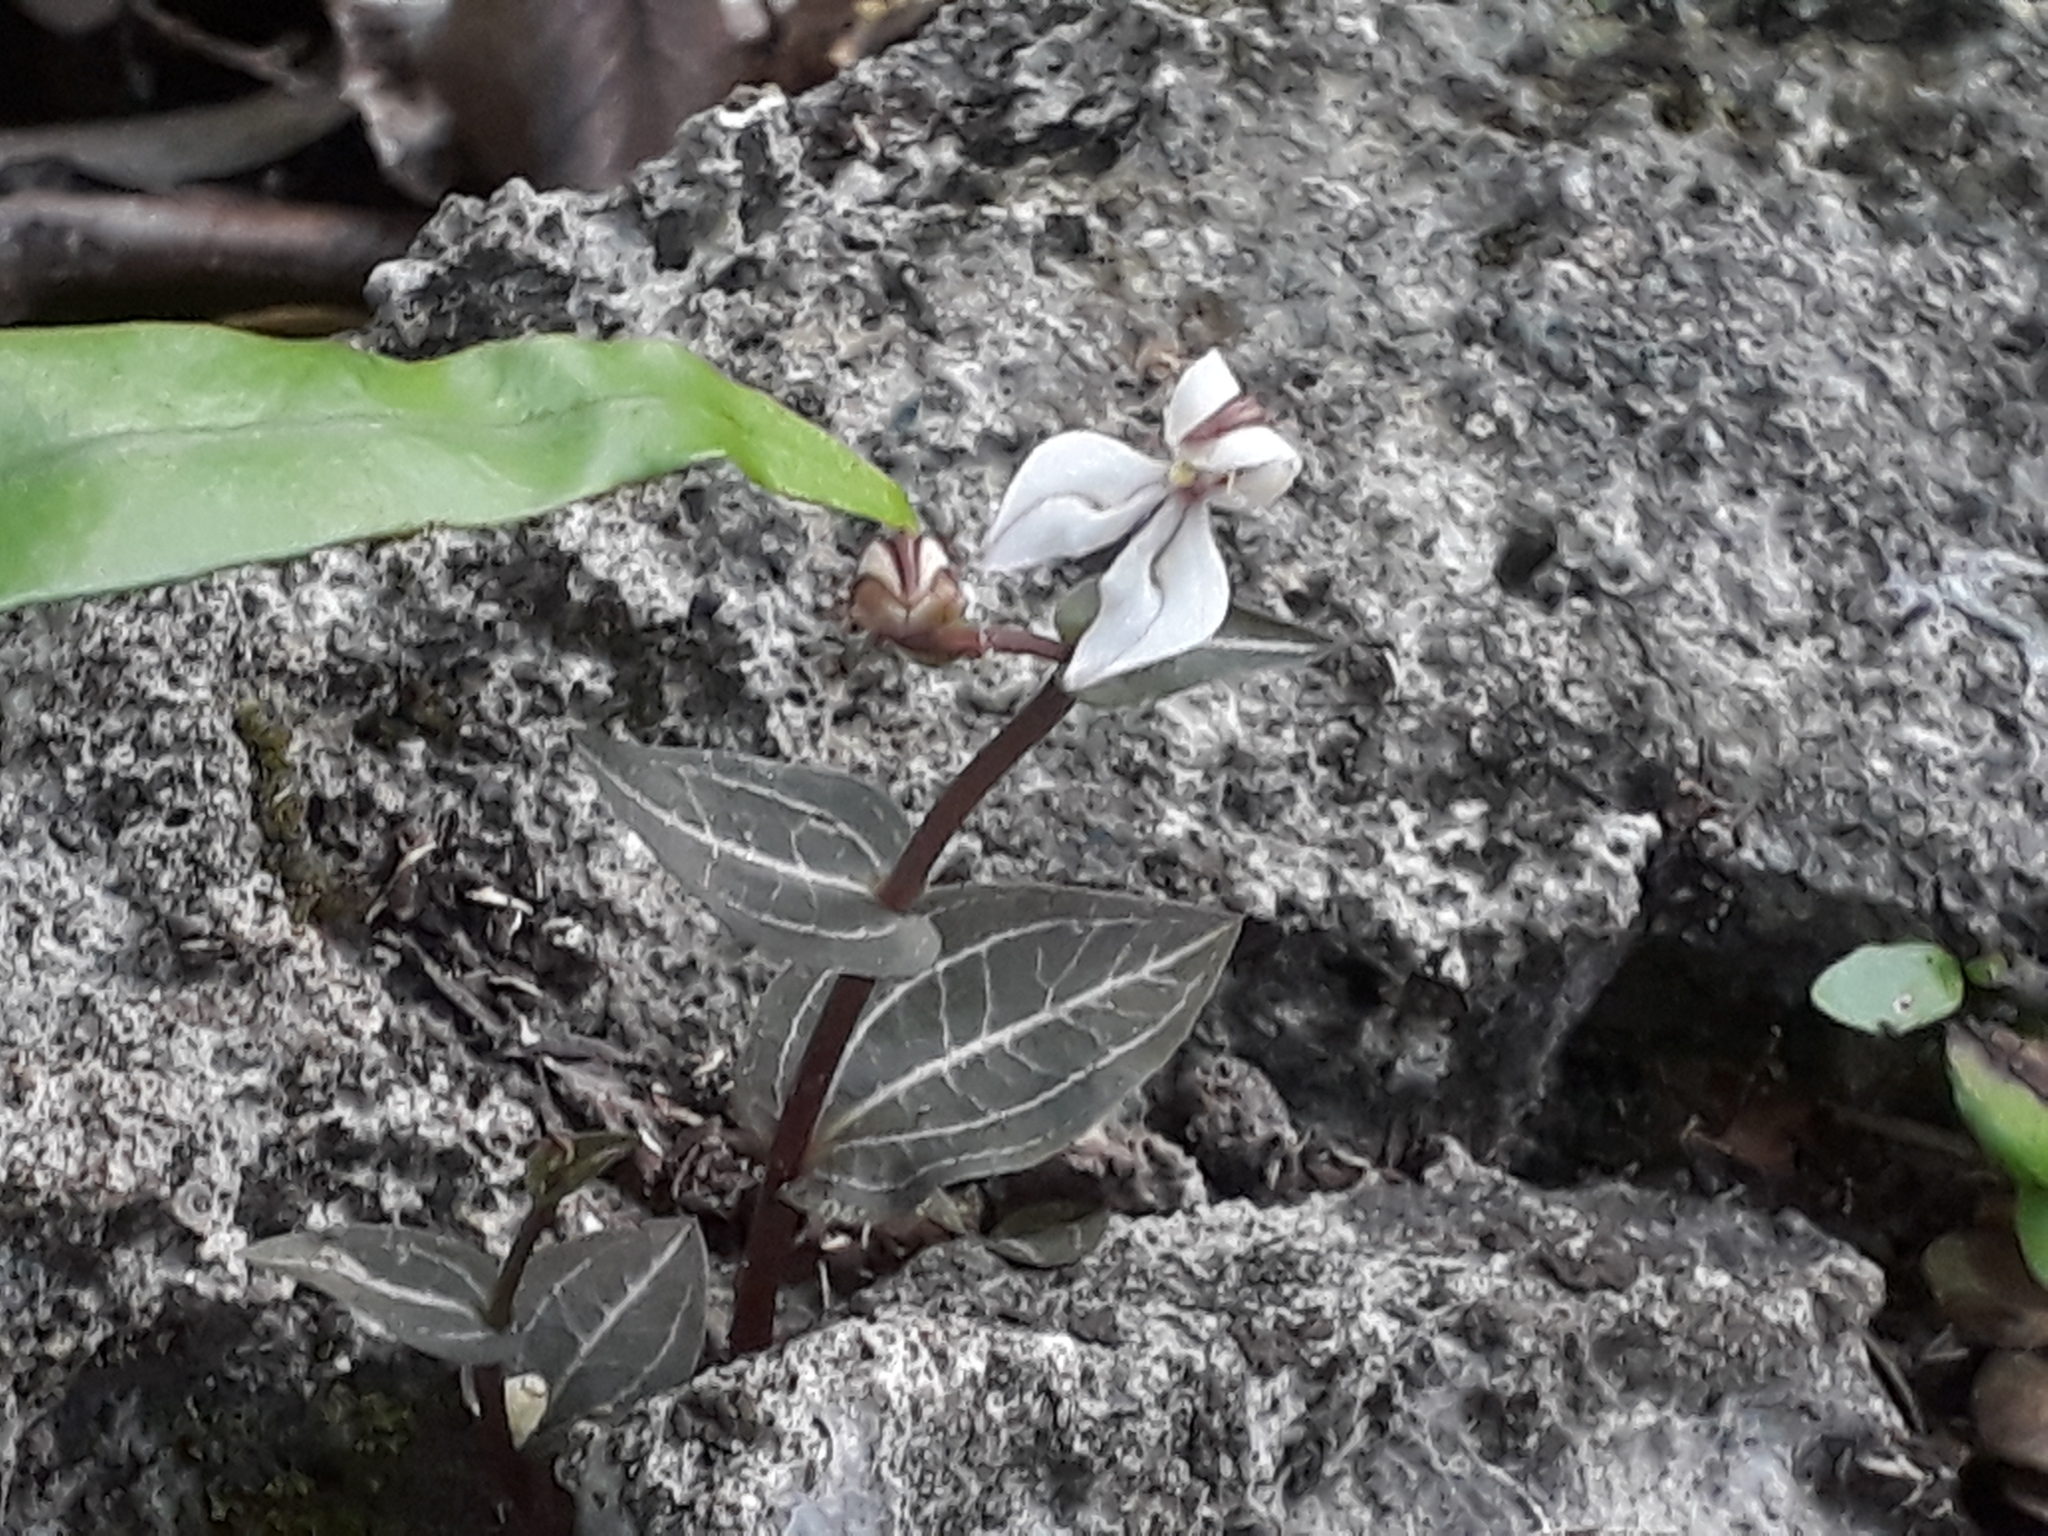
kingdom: Plantae
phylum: Tracheophyta
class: Liliopsida
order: Asparagales
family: Orchidaceae
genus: Disperis
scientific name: Disperis tripetaloides
